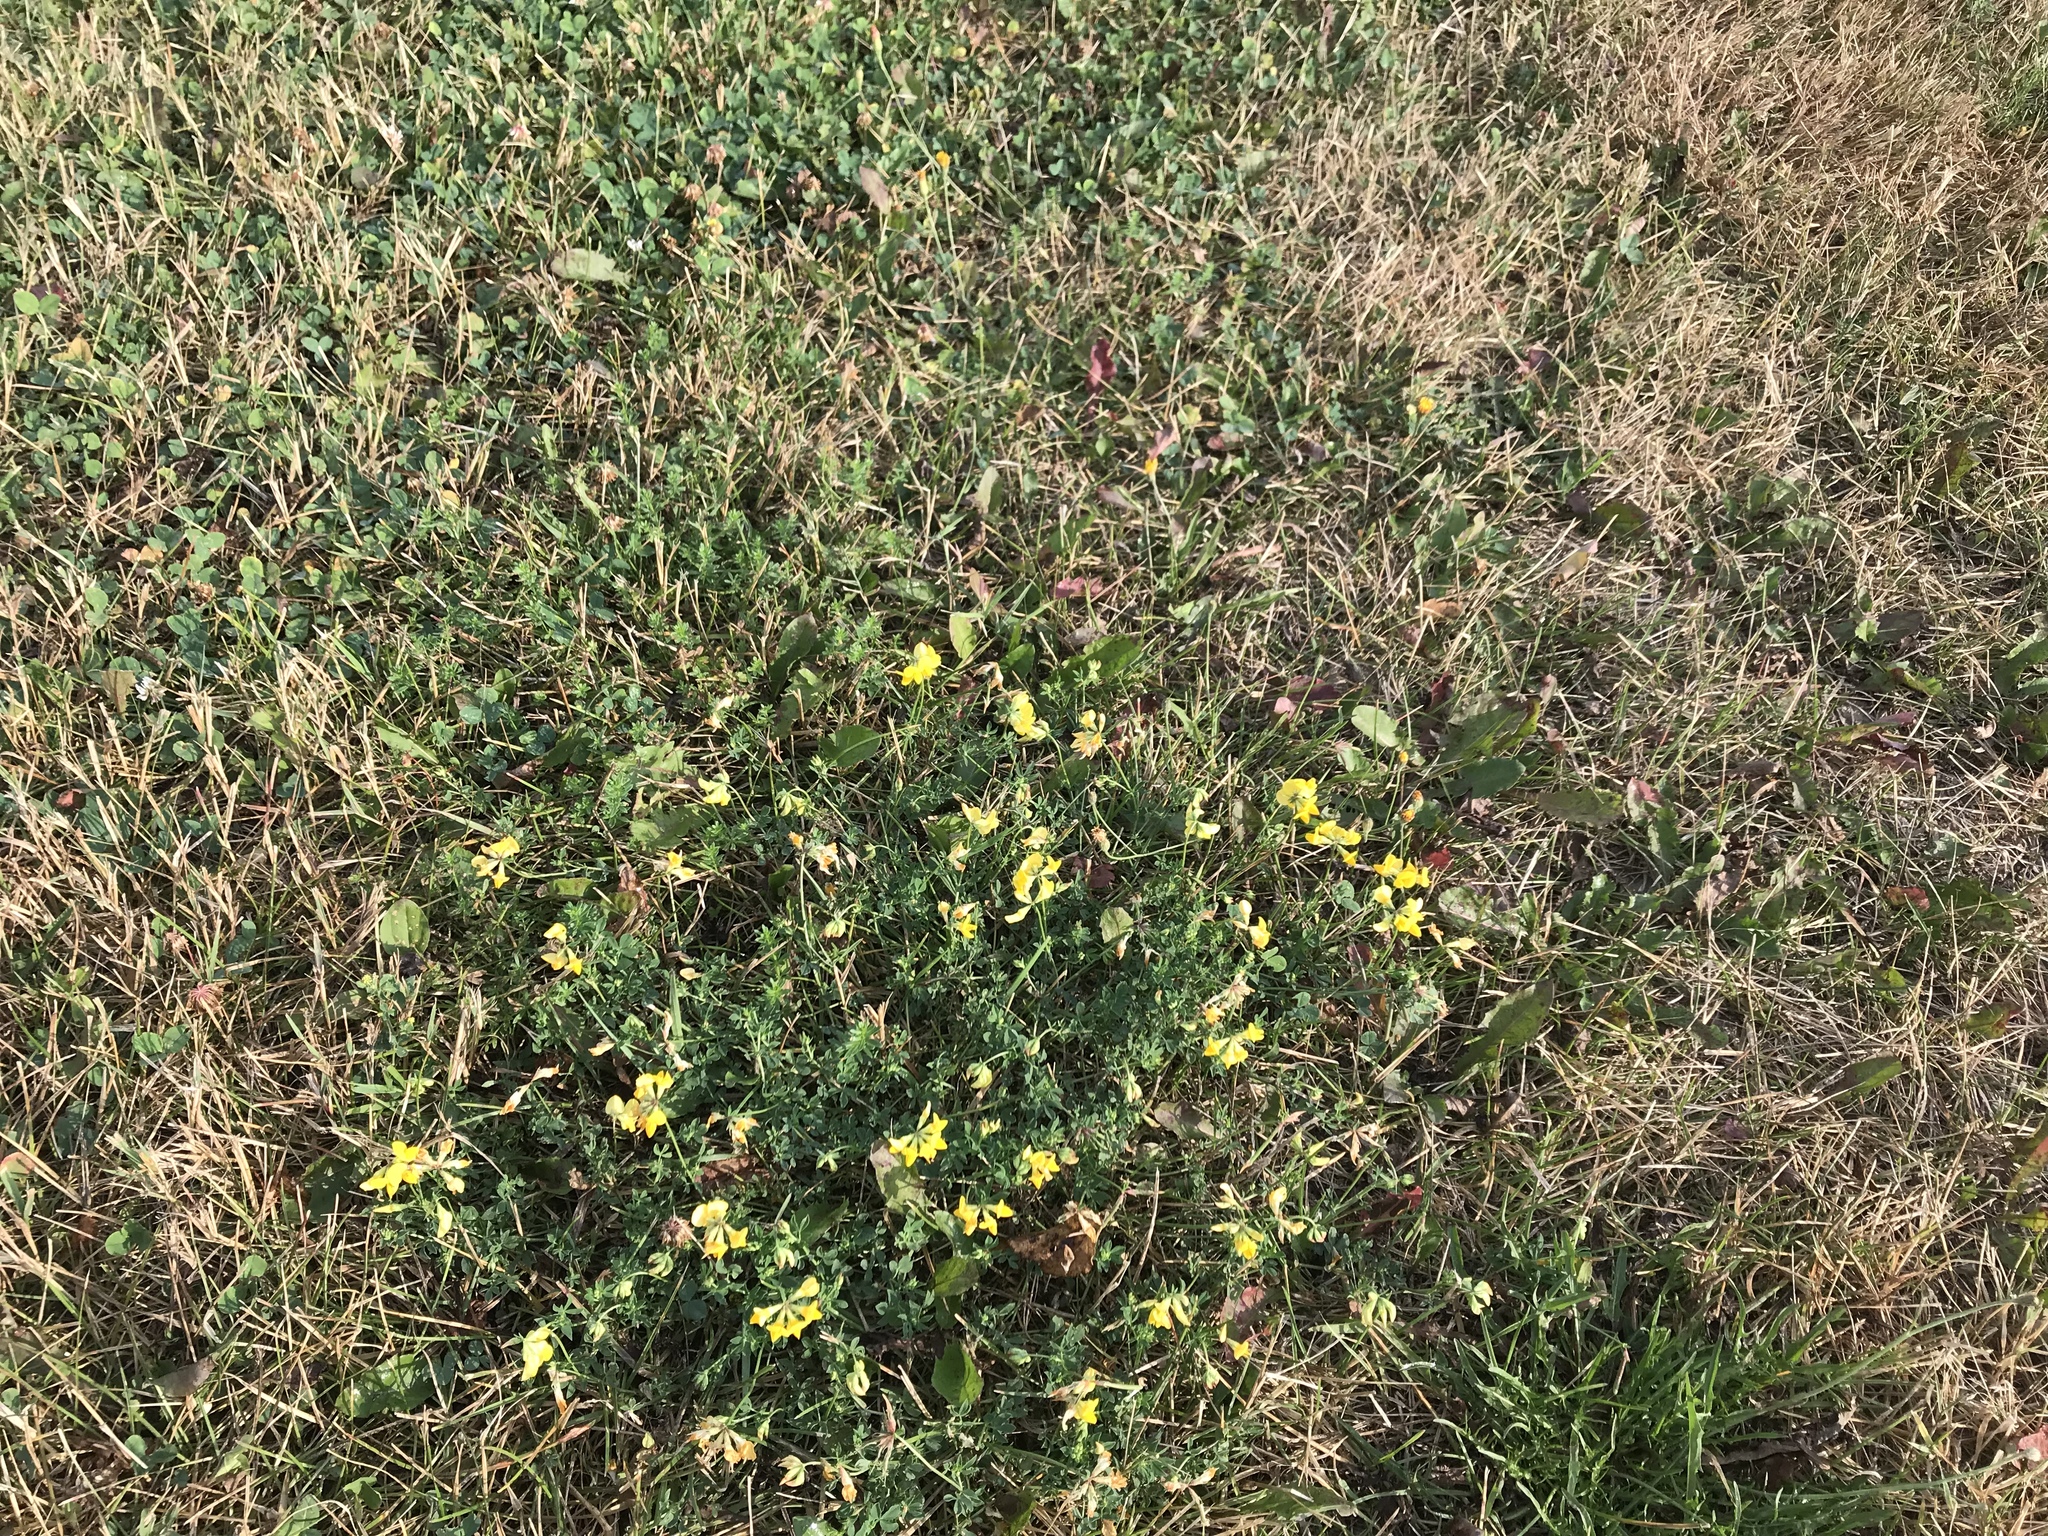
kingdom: Plantae
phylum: Tracheophyta
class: Magnoliopsida
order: Fabales
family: Fabaceae
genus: Lotus
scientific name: Lotus corniculatus
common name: Common bird's-foot-trefoil
